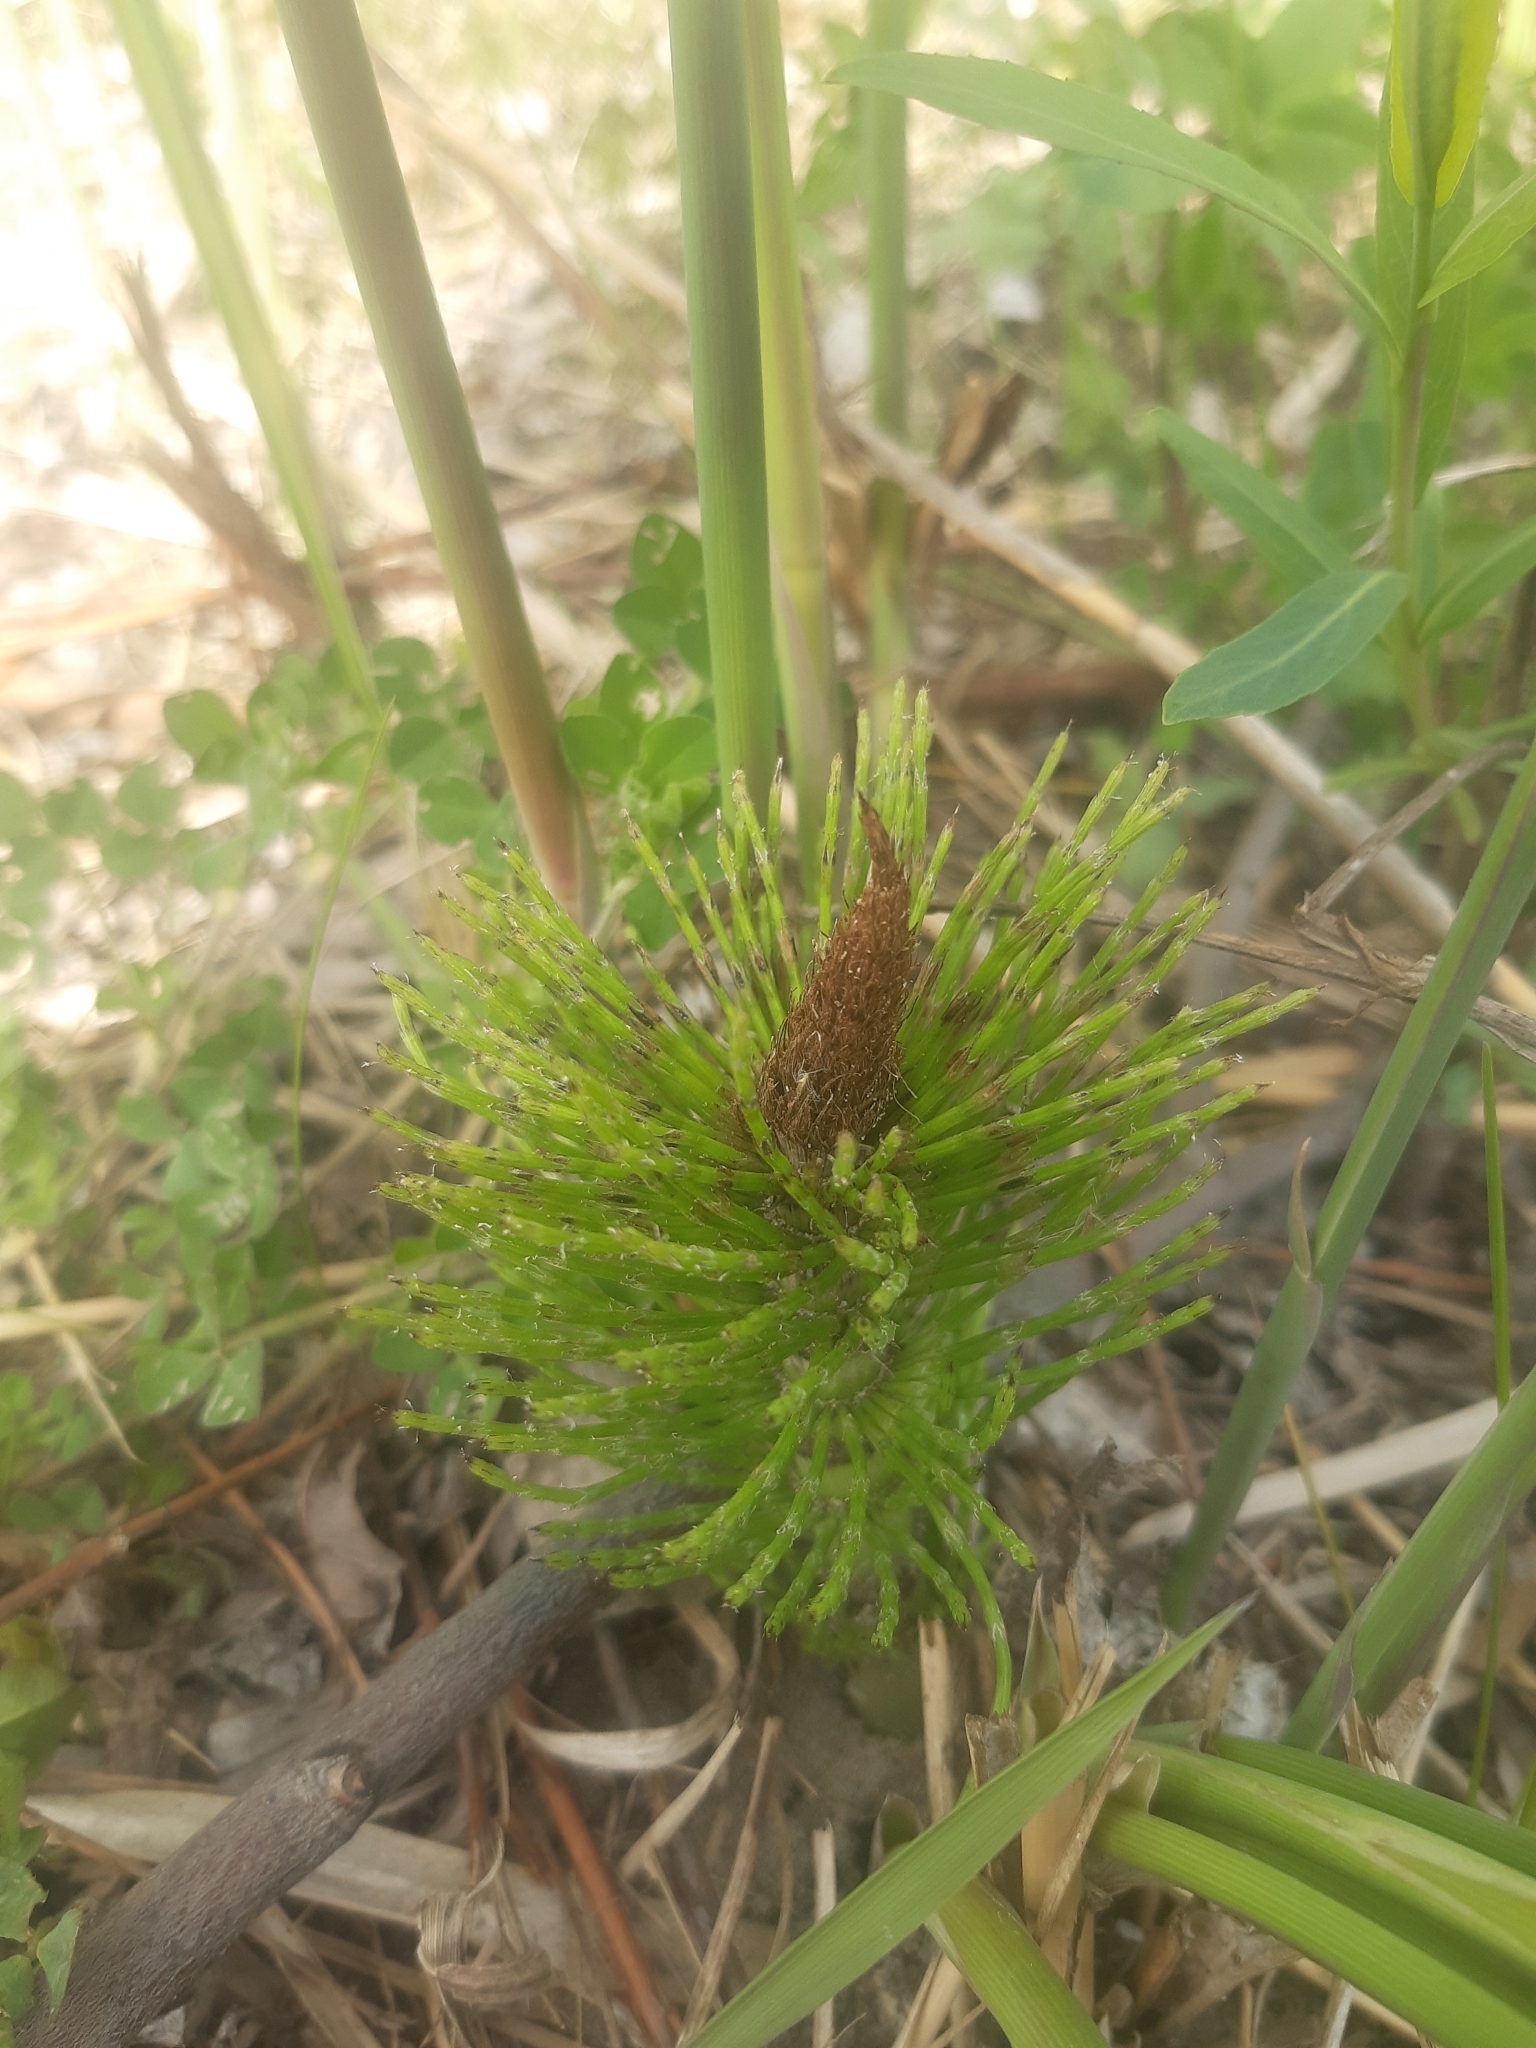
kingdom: Plantae
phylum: Tracheophyta
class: Polypodiopsida
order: Equisetales
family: Equisetaceae
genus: Equisetum
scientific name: Equisetum telmateia
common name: Great horsetail
